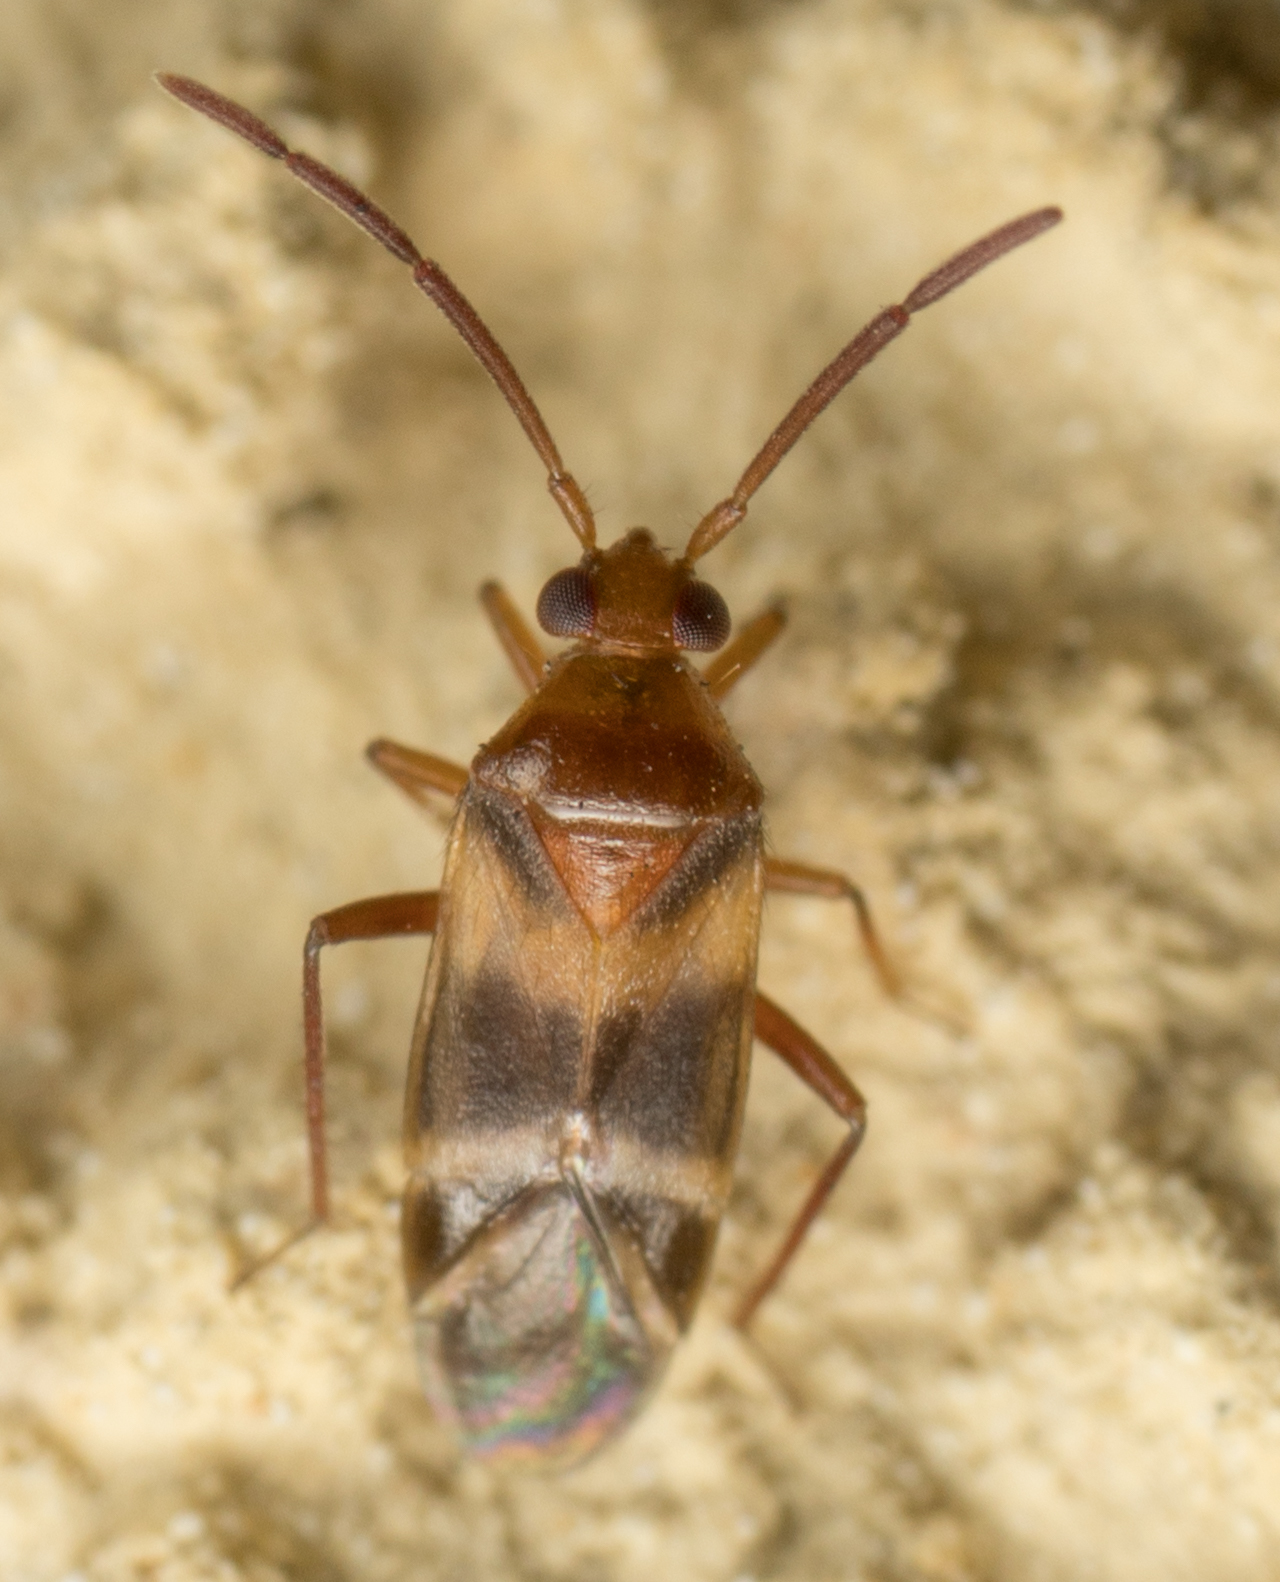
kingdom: Animalia
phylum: Arthropoda
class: Insecta
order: Hemiptera
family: Miridae
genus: Ceratocapsus
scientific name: Ceratocapsus apicatus
